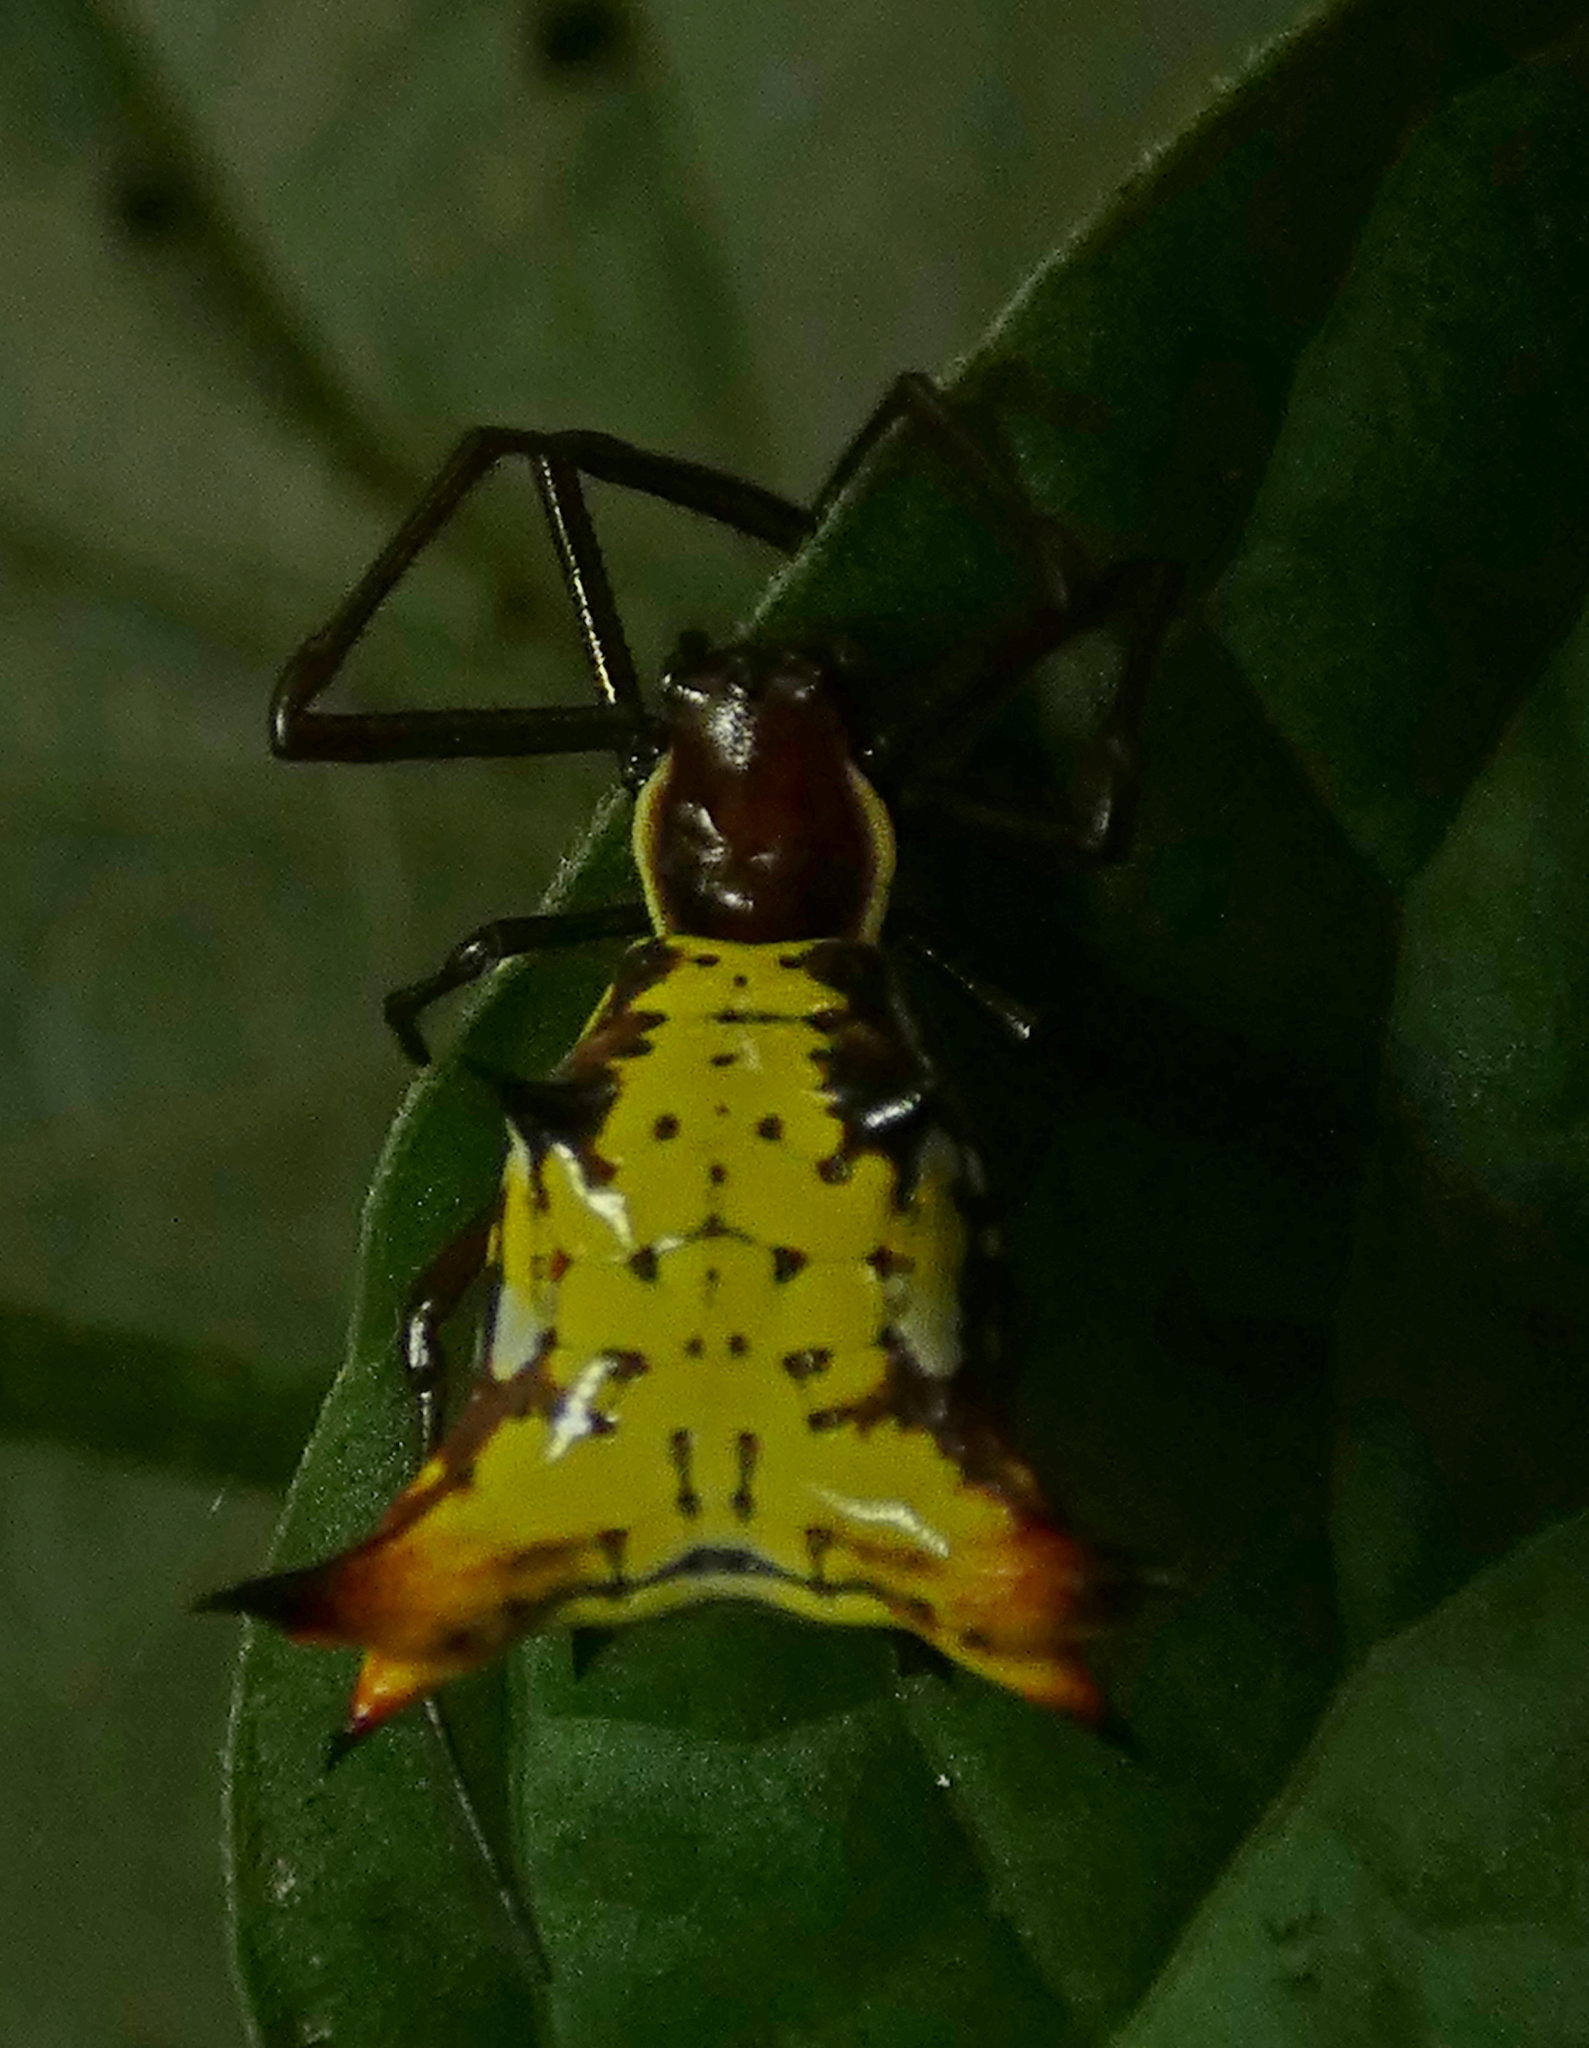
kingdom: Animalia
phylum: Arthropoda
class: Arachnida
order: Araneae
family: Araneidae
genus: Micrathena
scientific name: Micrathena fissispina
